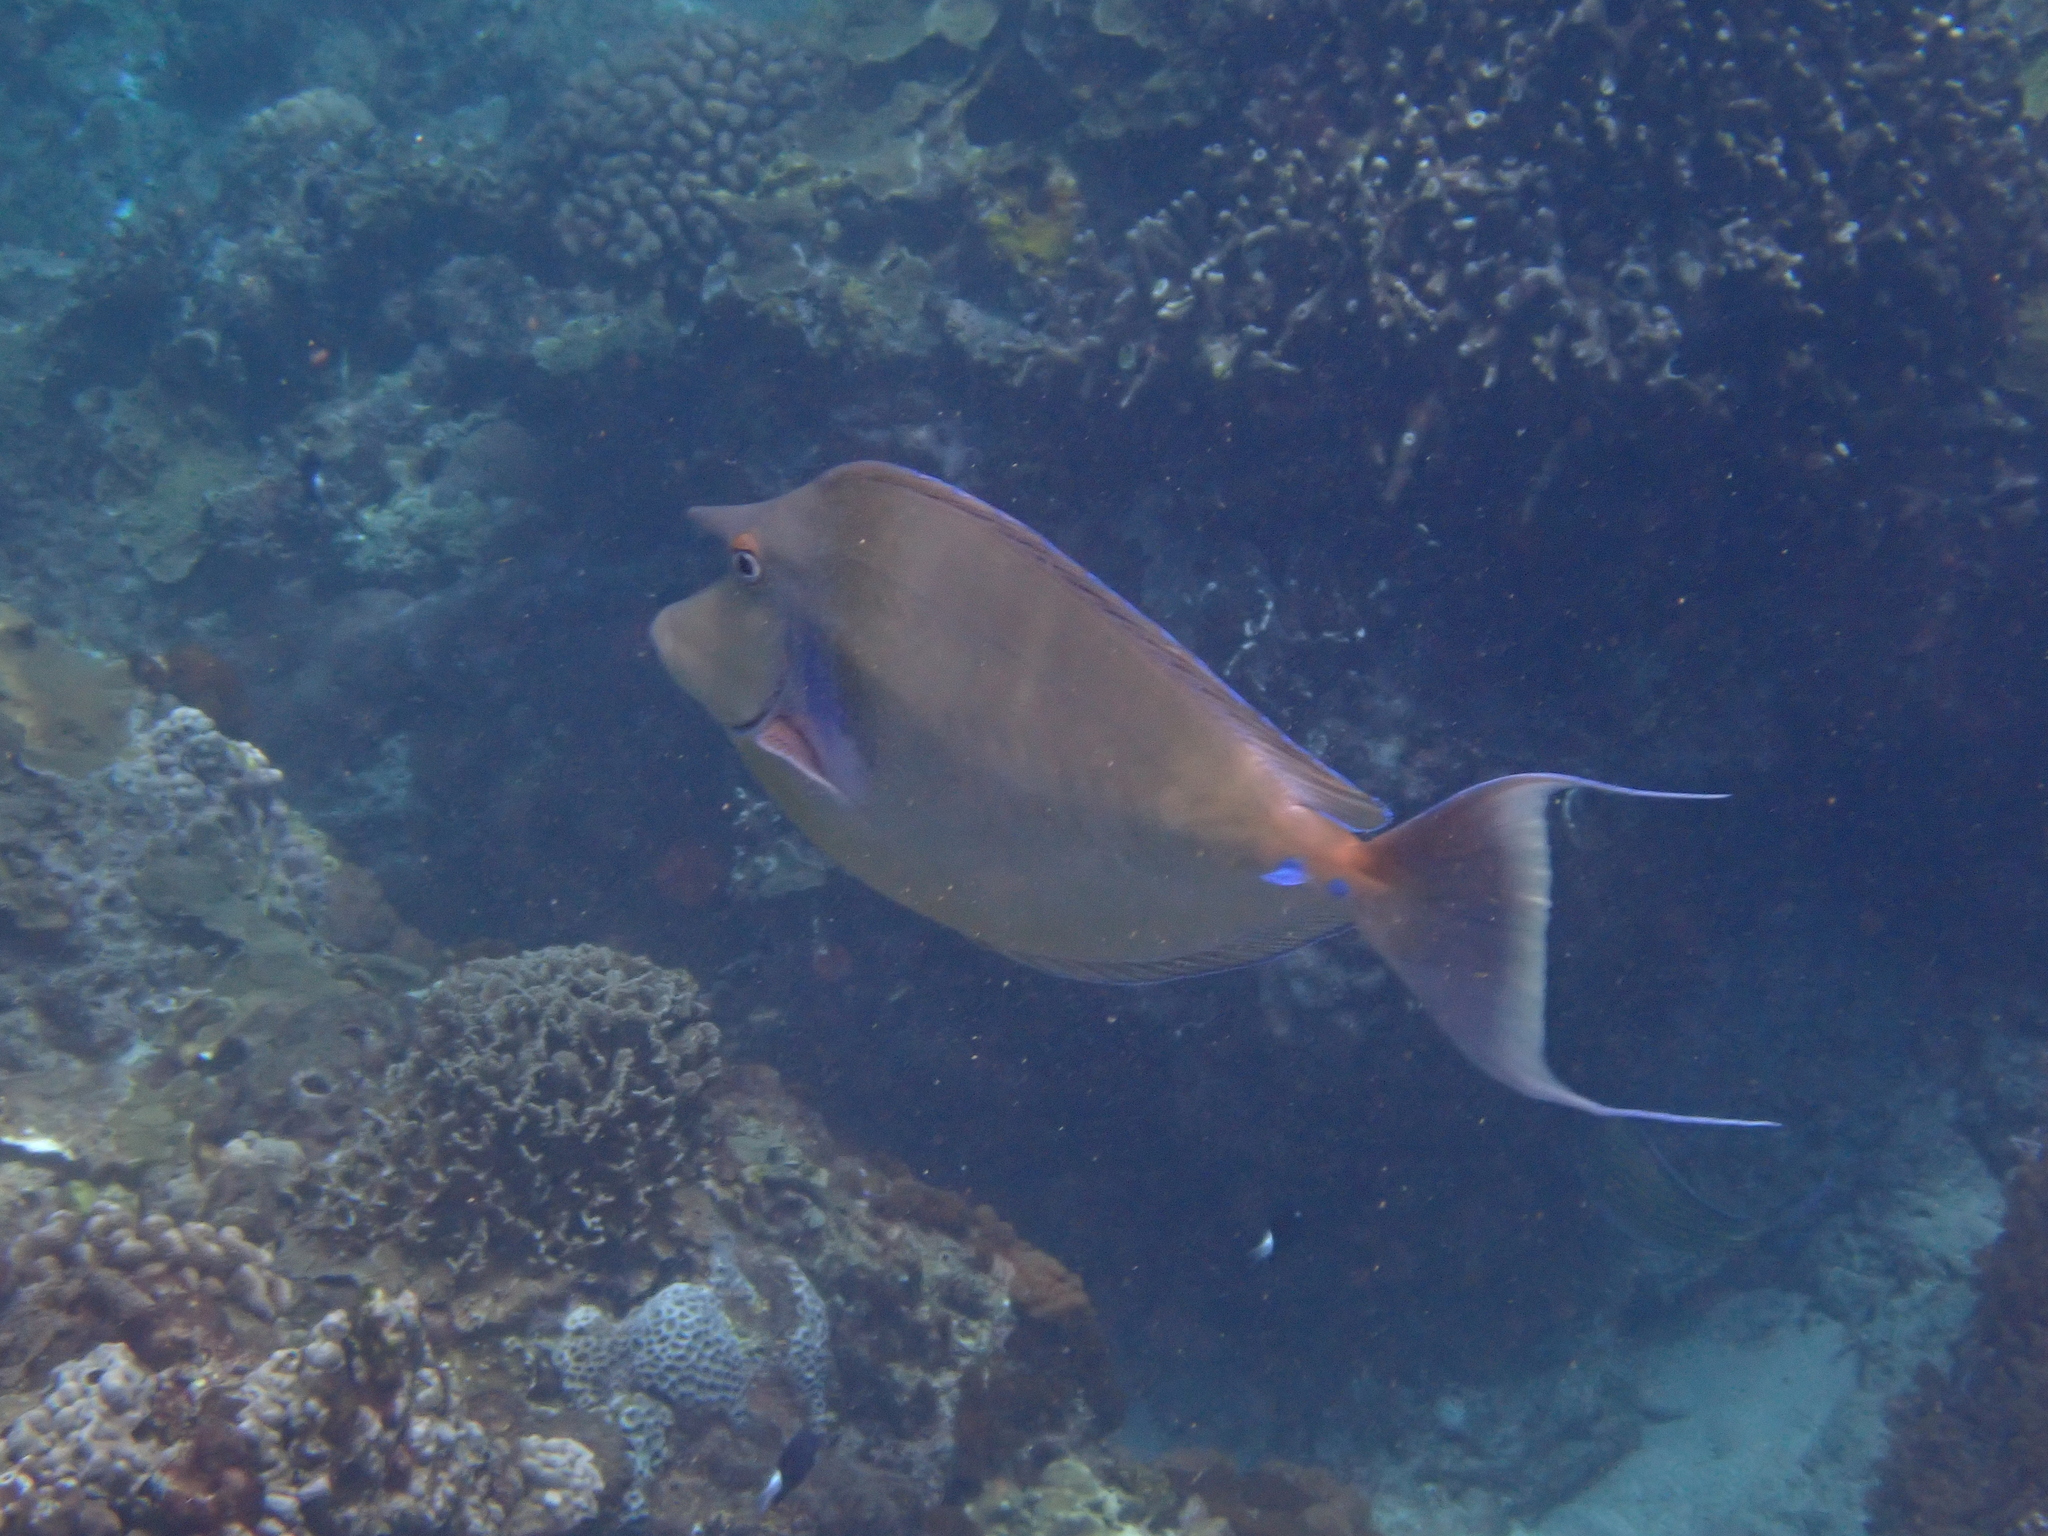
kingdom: Animalia
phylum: Chordata
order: Perciformes
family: Acanthuridae
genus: Naso
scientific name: Naso unicornis
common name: Bluespine unicornfish
